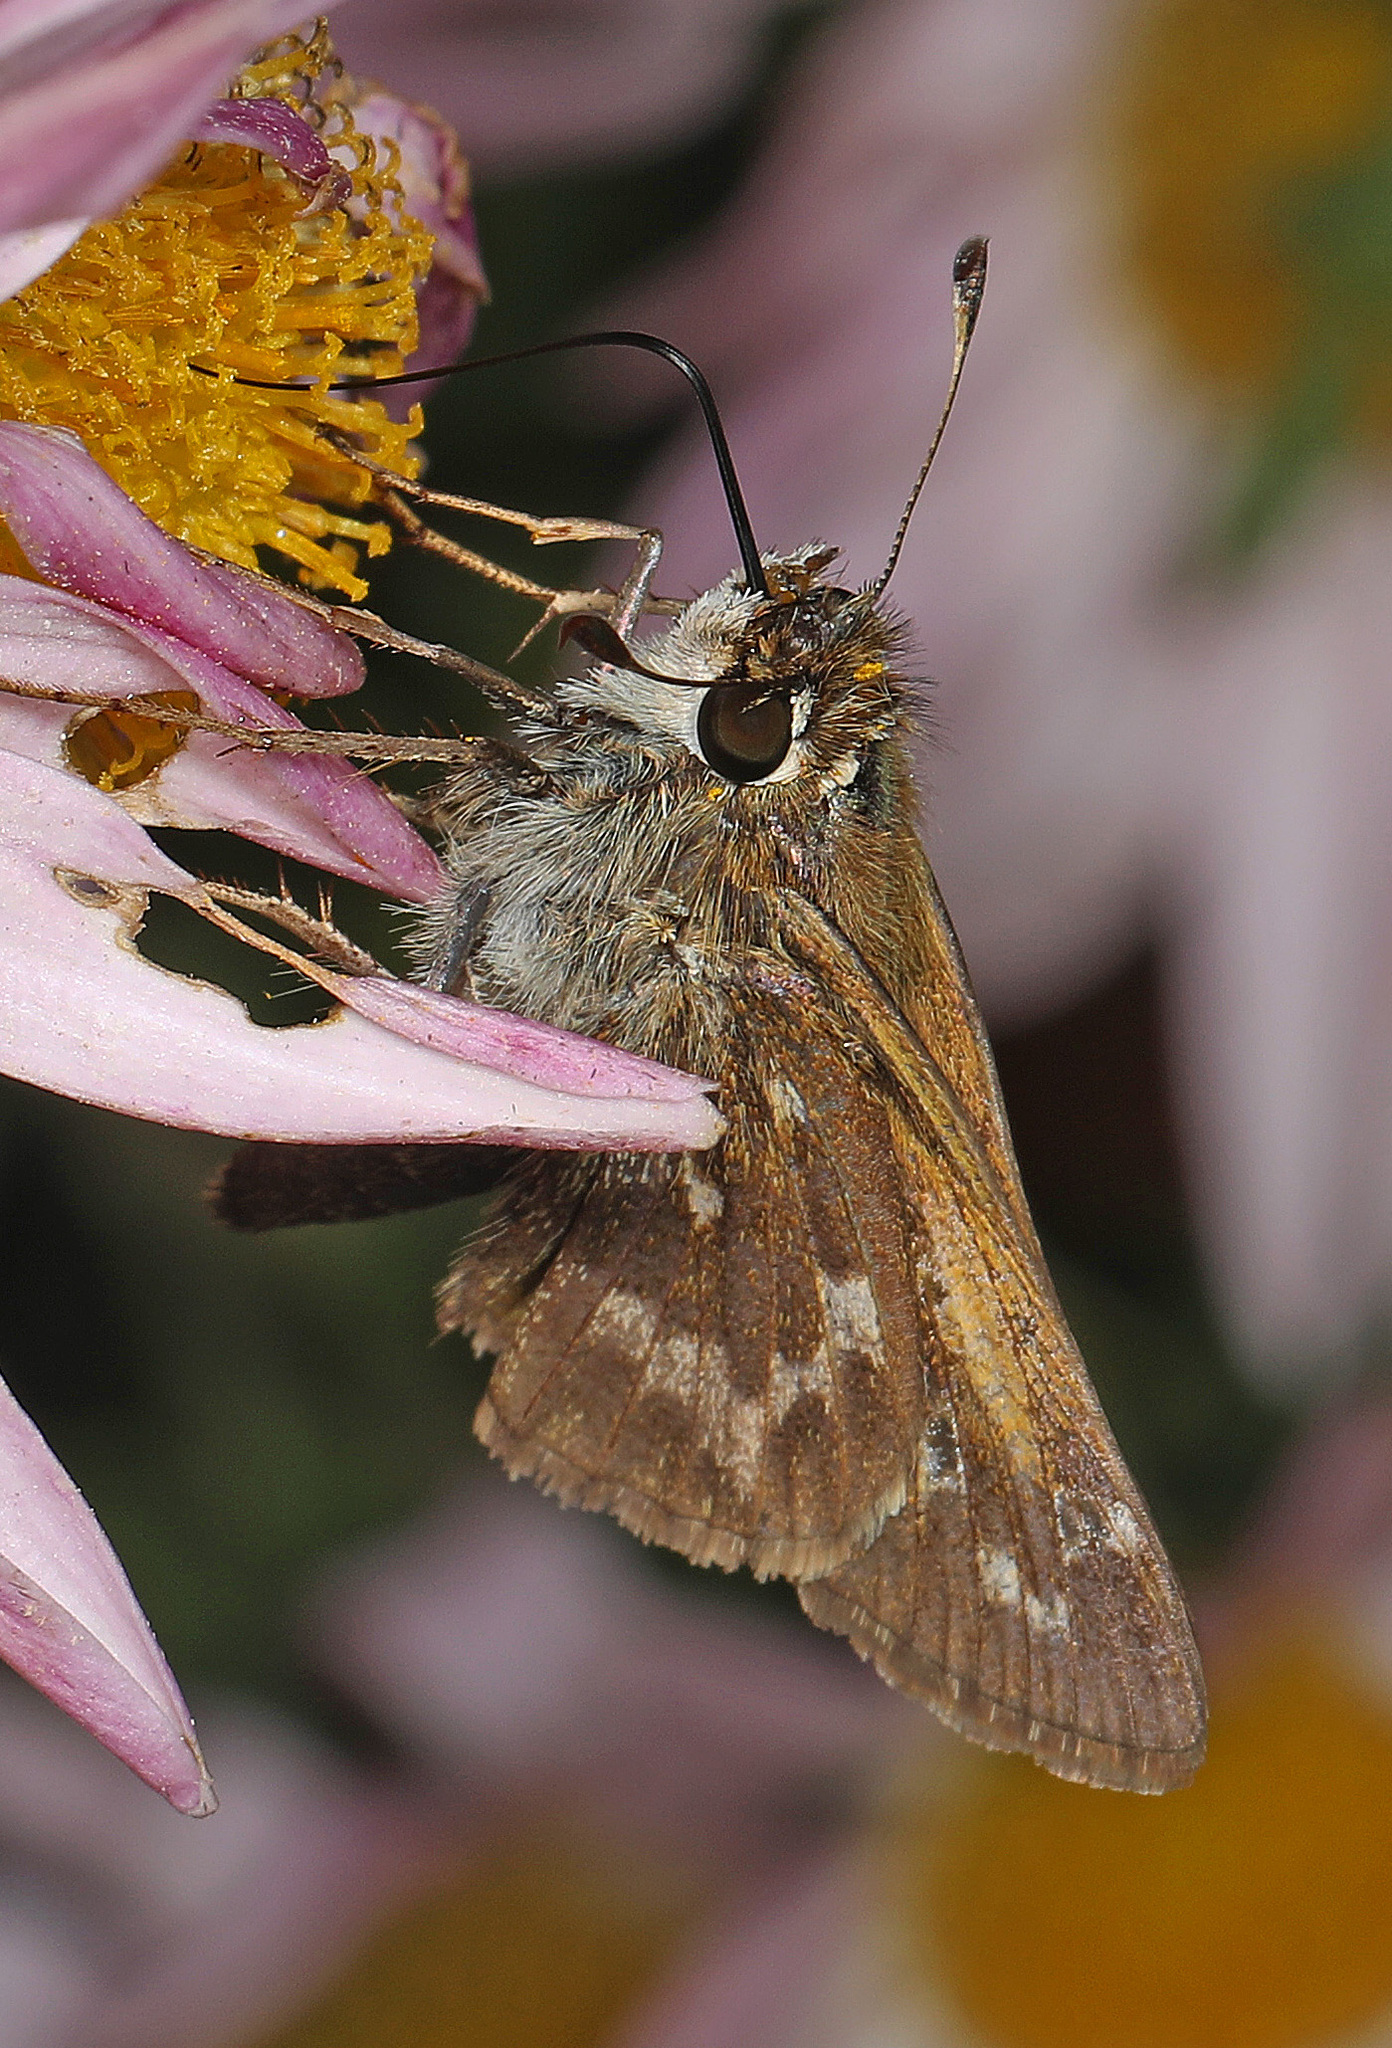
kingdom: Animalia
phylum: Arthropoda
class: Insecta
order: Lepidoptera
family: Hesperiidae
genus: Atalopedes
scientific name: Atalopedes
